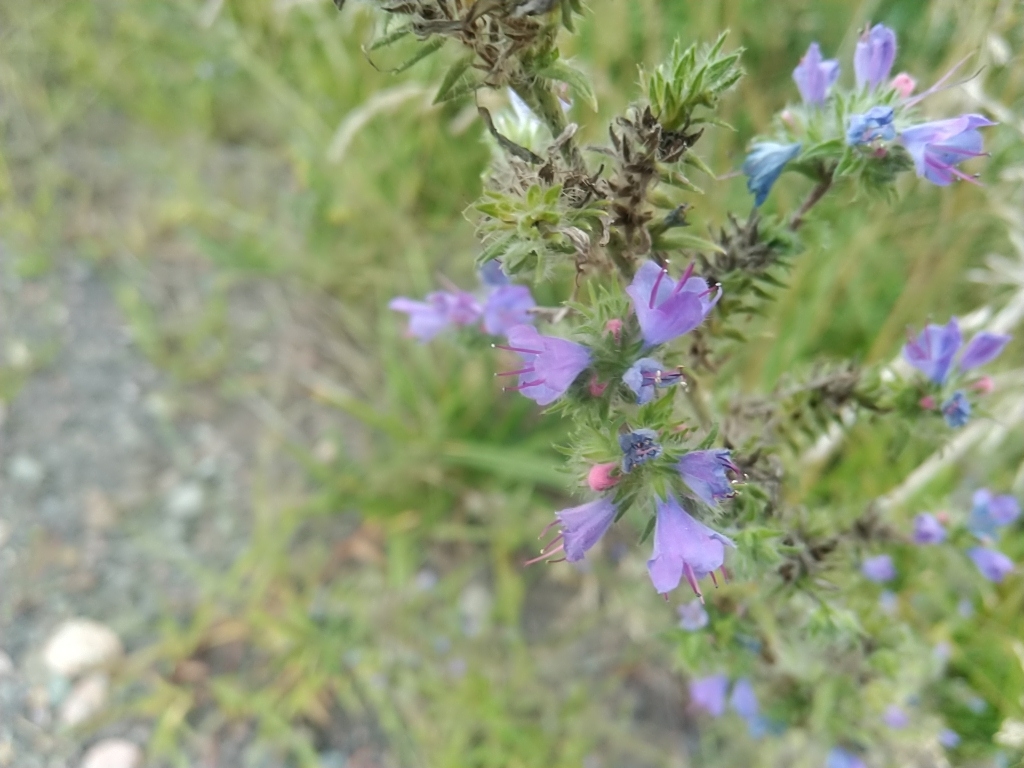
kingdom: Plantae
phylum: Tracheophyta
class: Magnoliopsida
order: Boraginales
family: Boraginaceae
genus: Echium
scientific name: Echium vulgare
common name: Common viper's bugloss
